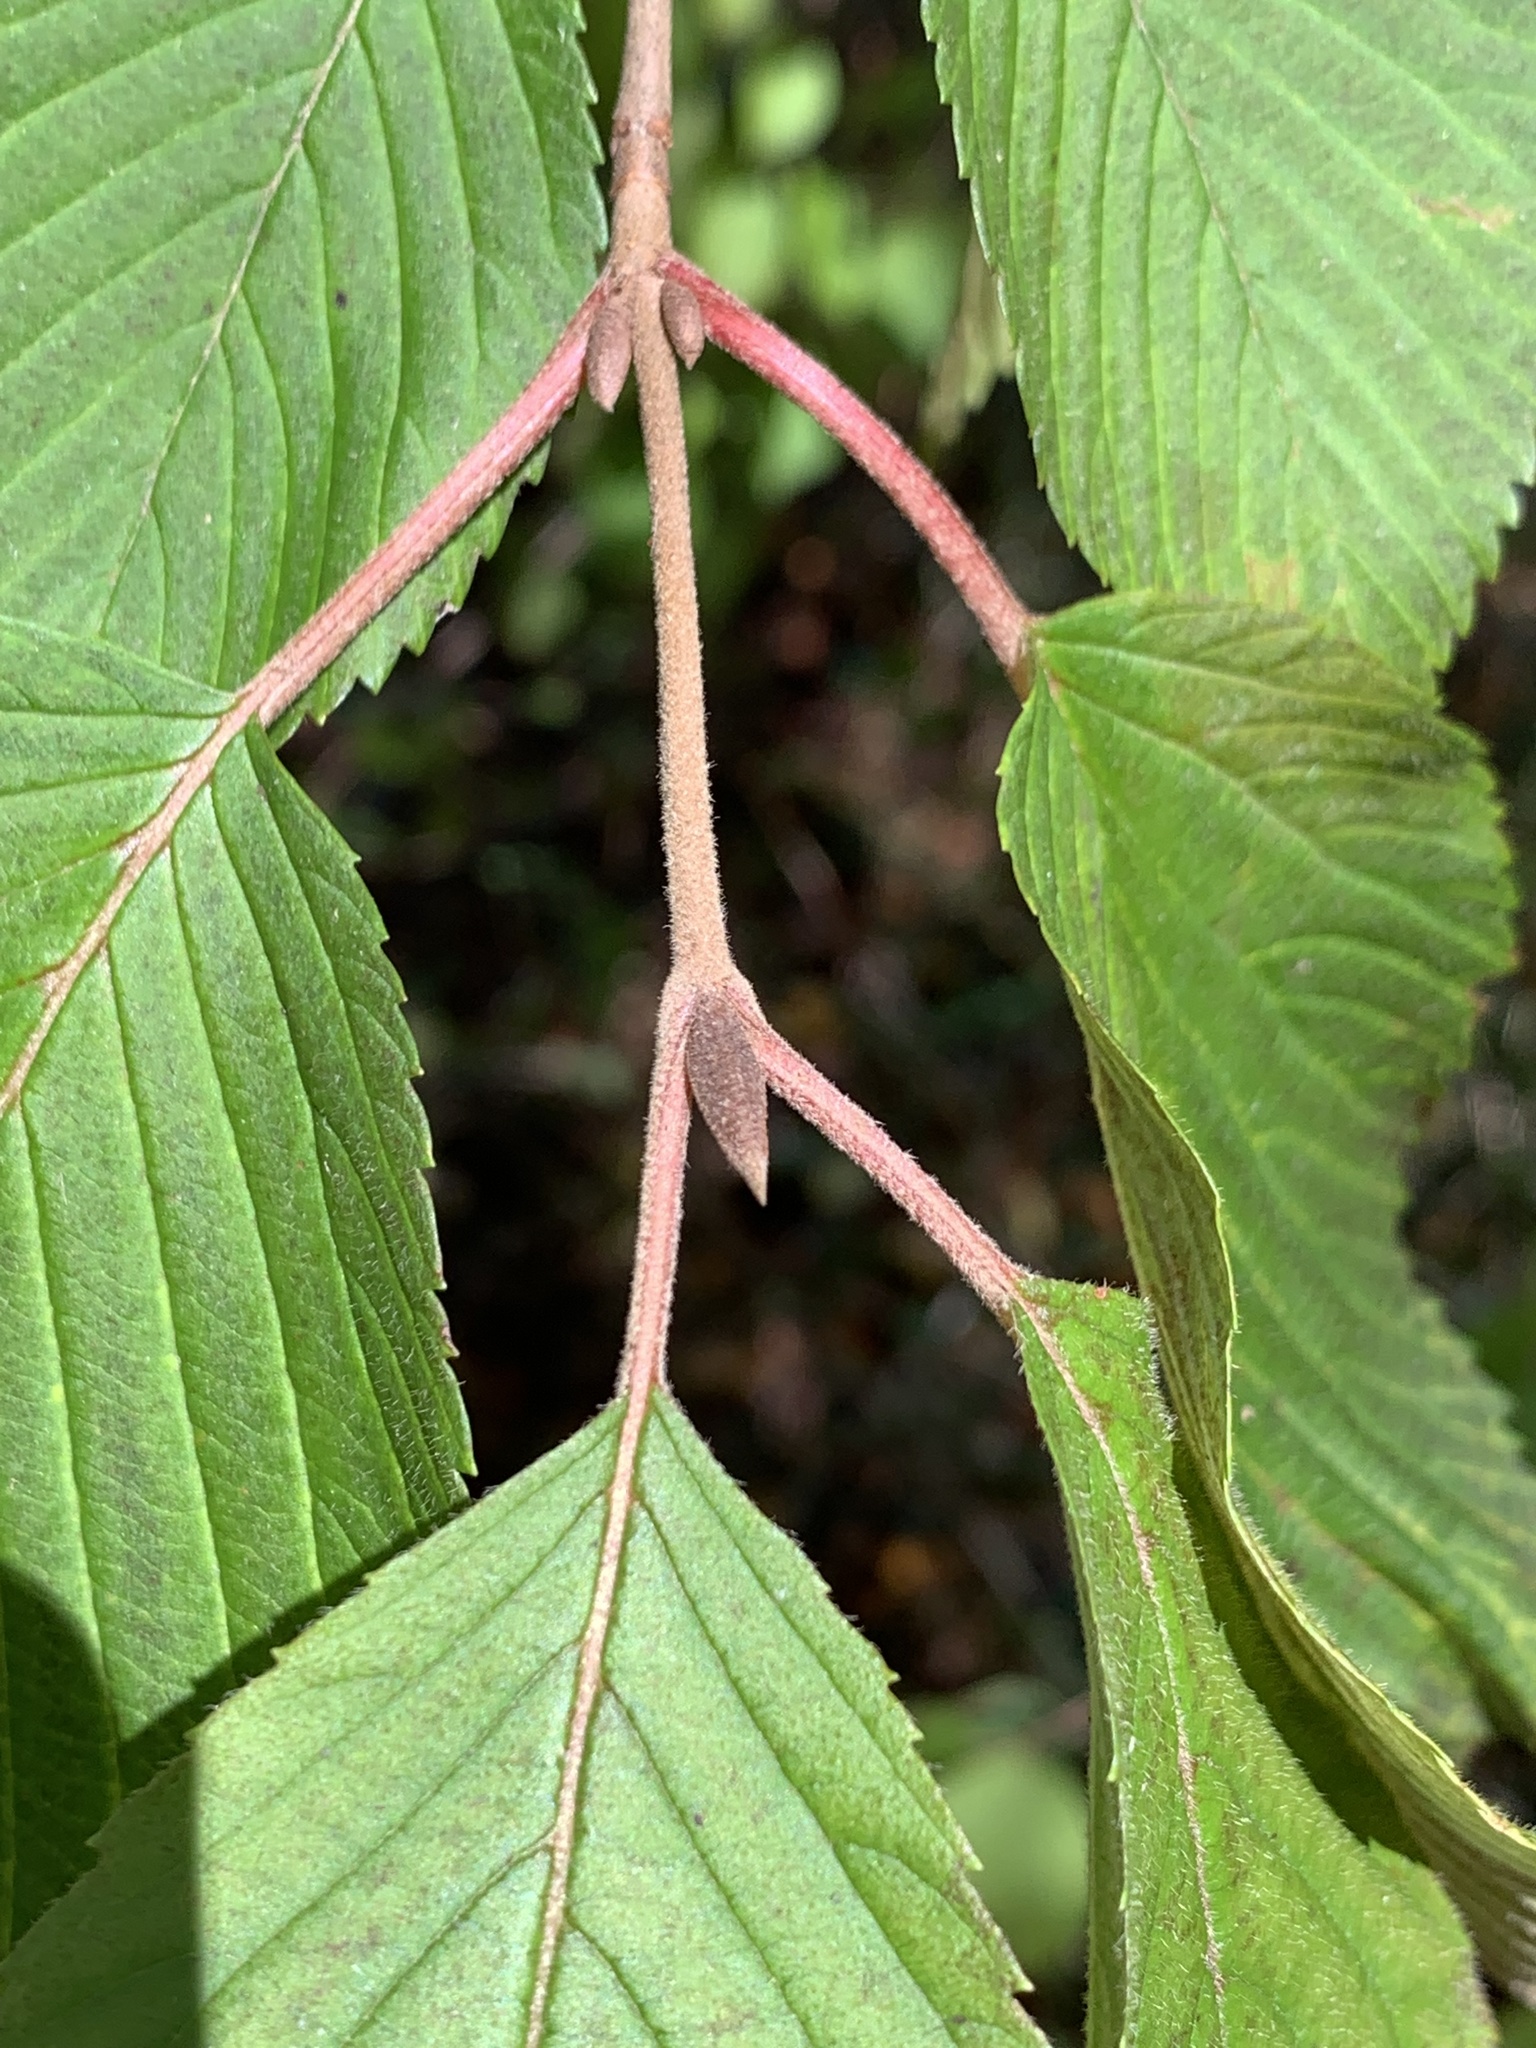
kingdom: Plantae
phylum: Tracheophyta
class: Magnoliopsida
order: Dipsacales
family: Viburnaceae
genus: Viburnum
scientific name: Viburnum plicatum
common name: Japanese snowball
